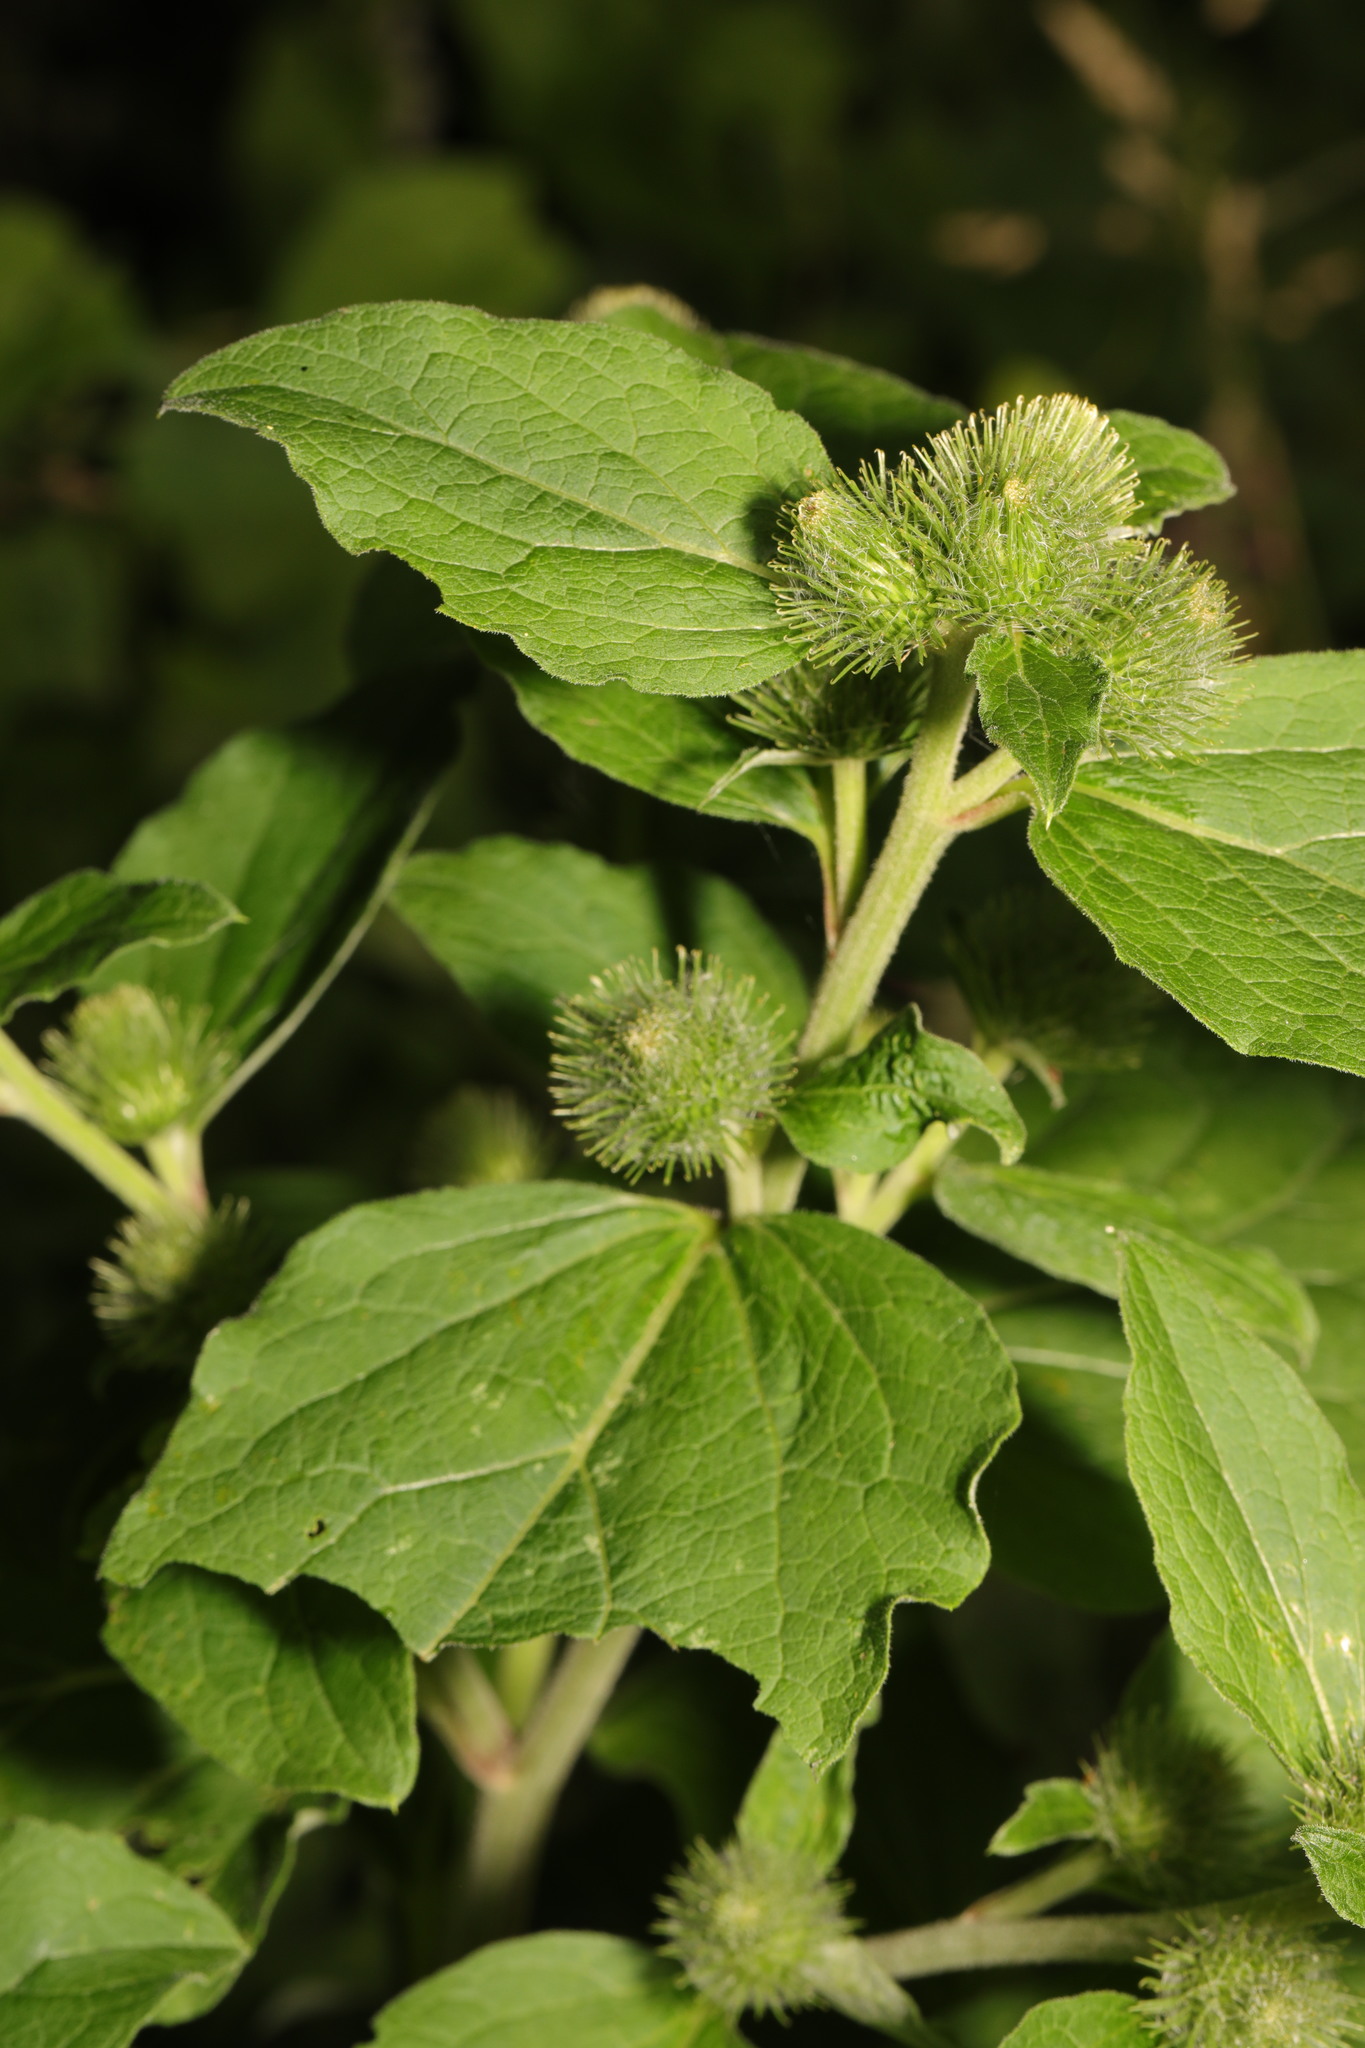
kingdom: Plantae
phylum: Tracheophyta
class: Magnoliopsida
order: Asterales
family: Asteraceae
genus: Arctium
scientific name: Arctium minus
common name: Lesser burdock
